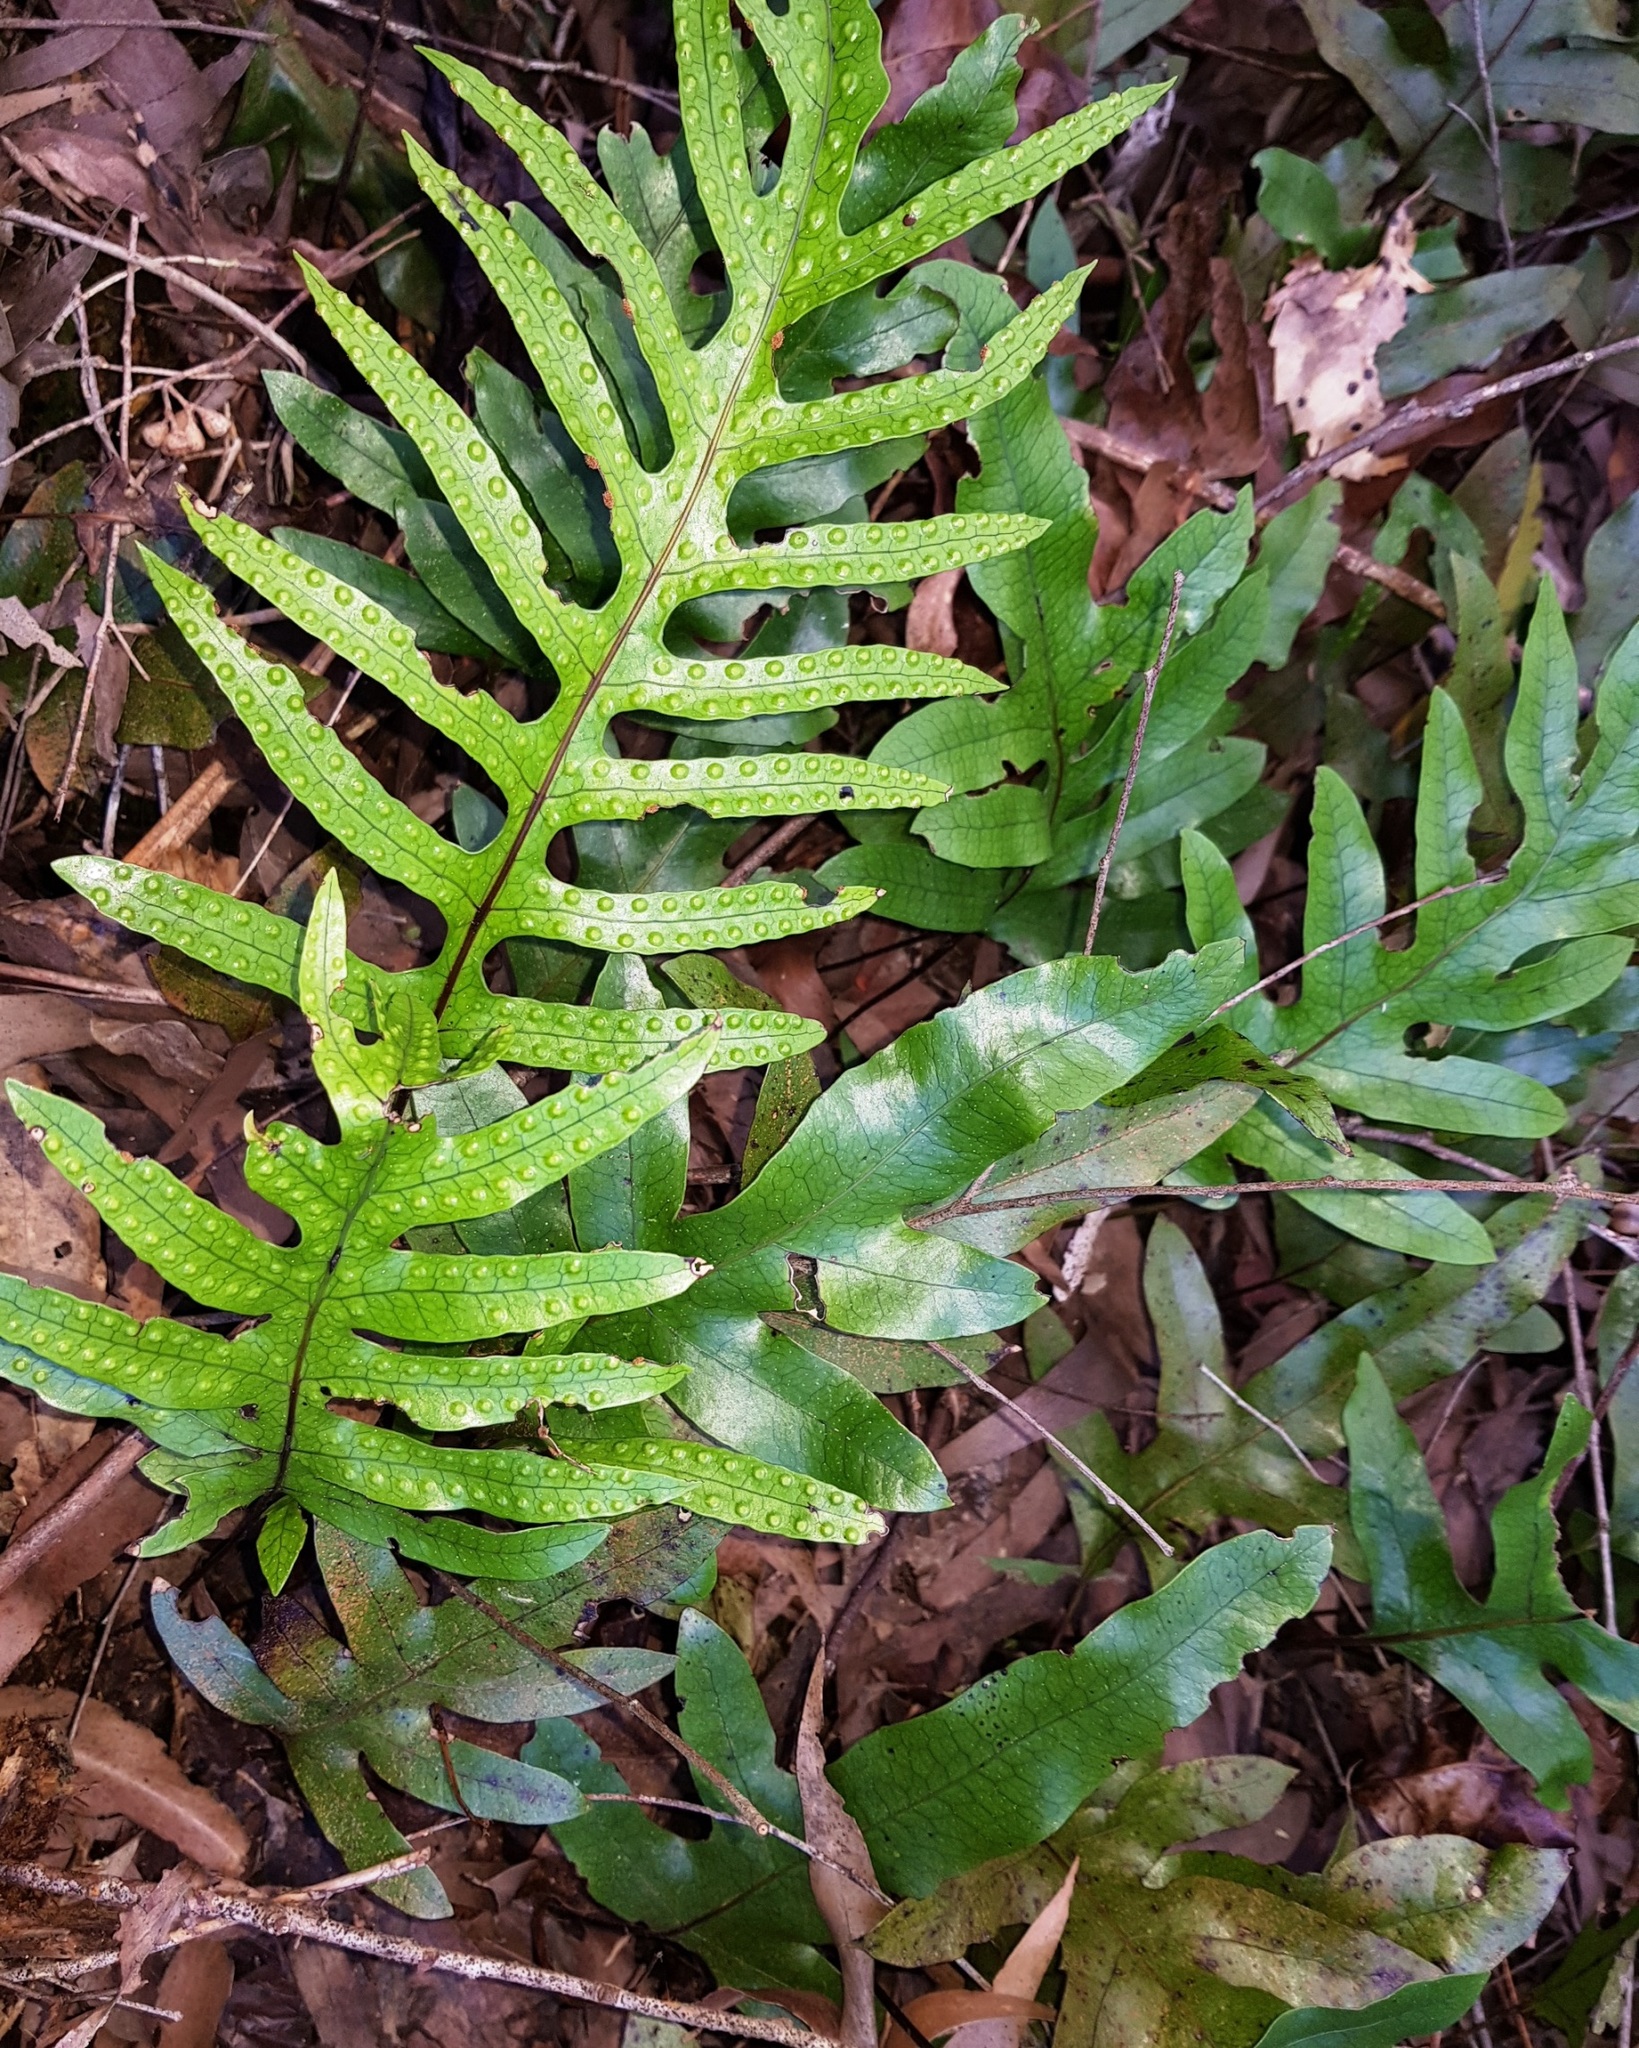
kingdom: Plantae
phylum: Tracheophyta
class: Polypodiopsida
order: Polypodiales
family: Polypodiaceae
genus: Lecanopteris
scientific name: Lecanopteris pustulata
